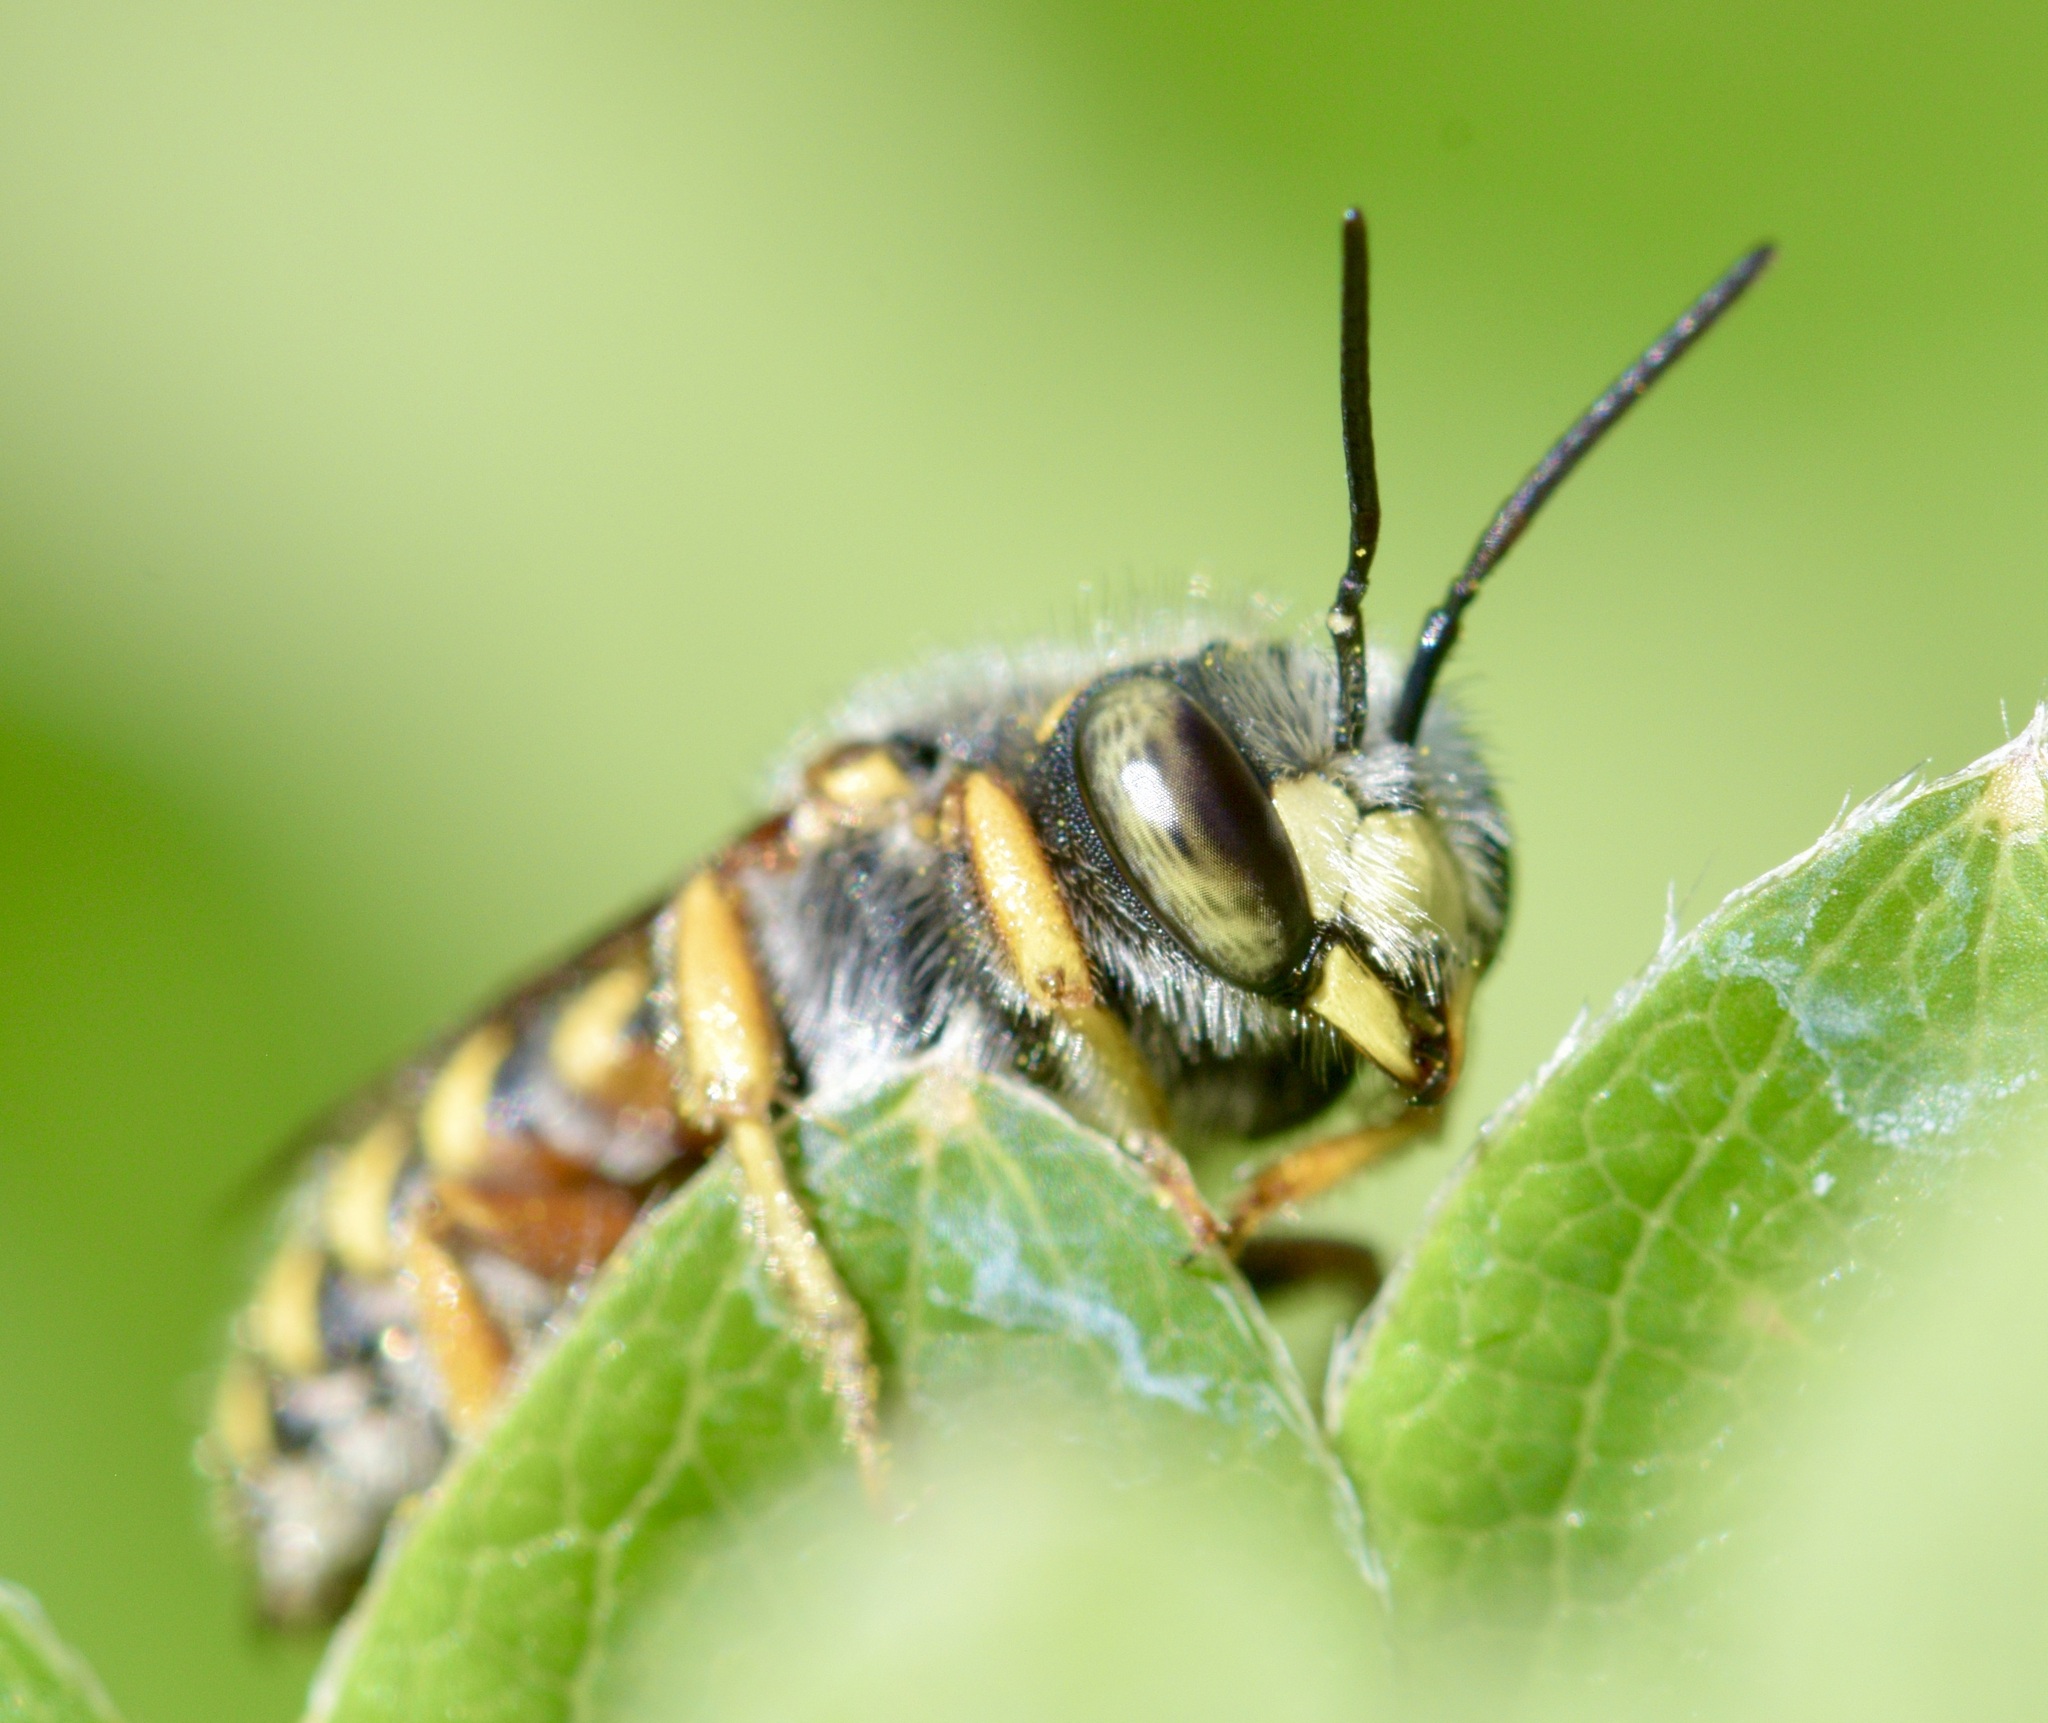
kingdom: Animalia
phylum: Arthropoda
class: Insecta
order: Hymenoptera
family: Megachilidae
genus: Anthidium
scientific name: Anthidium oblongatum
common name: Oblong wool carder bee
